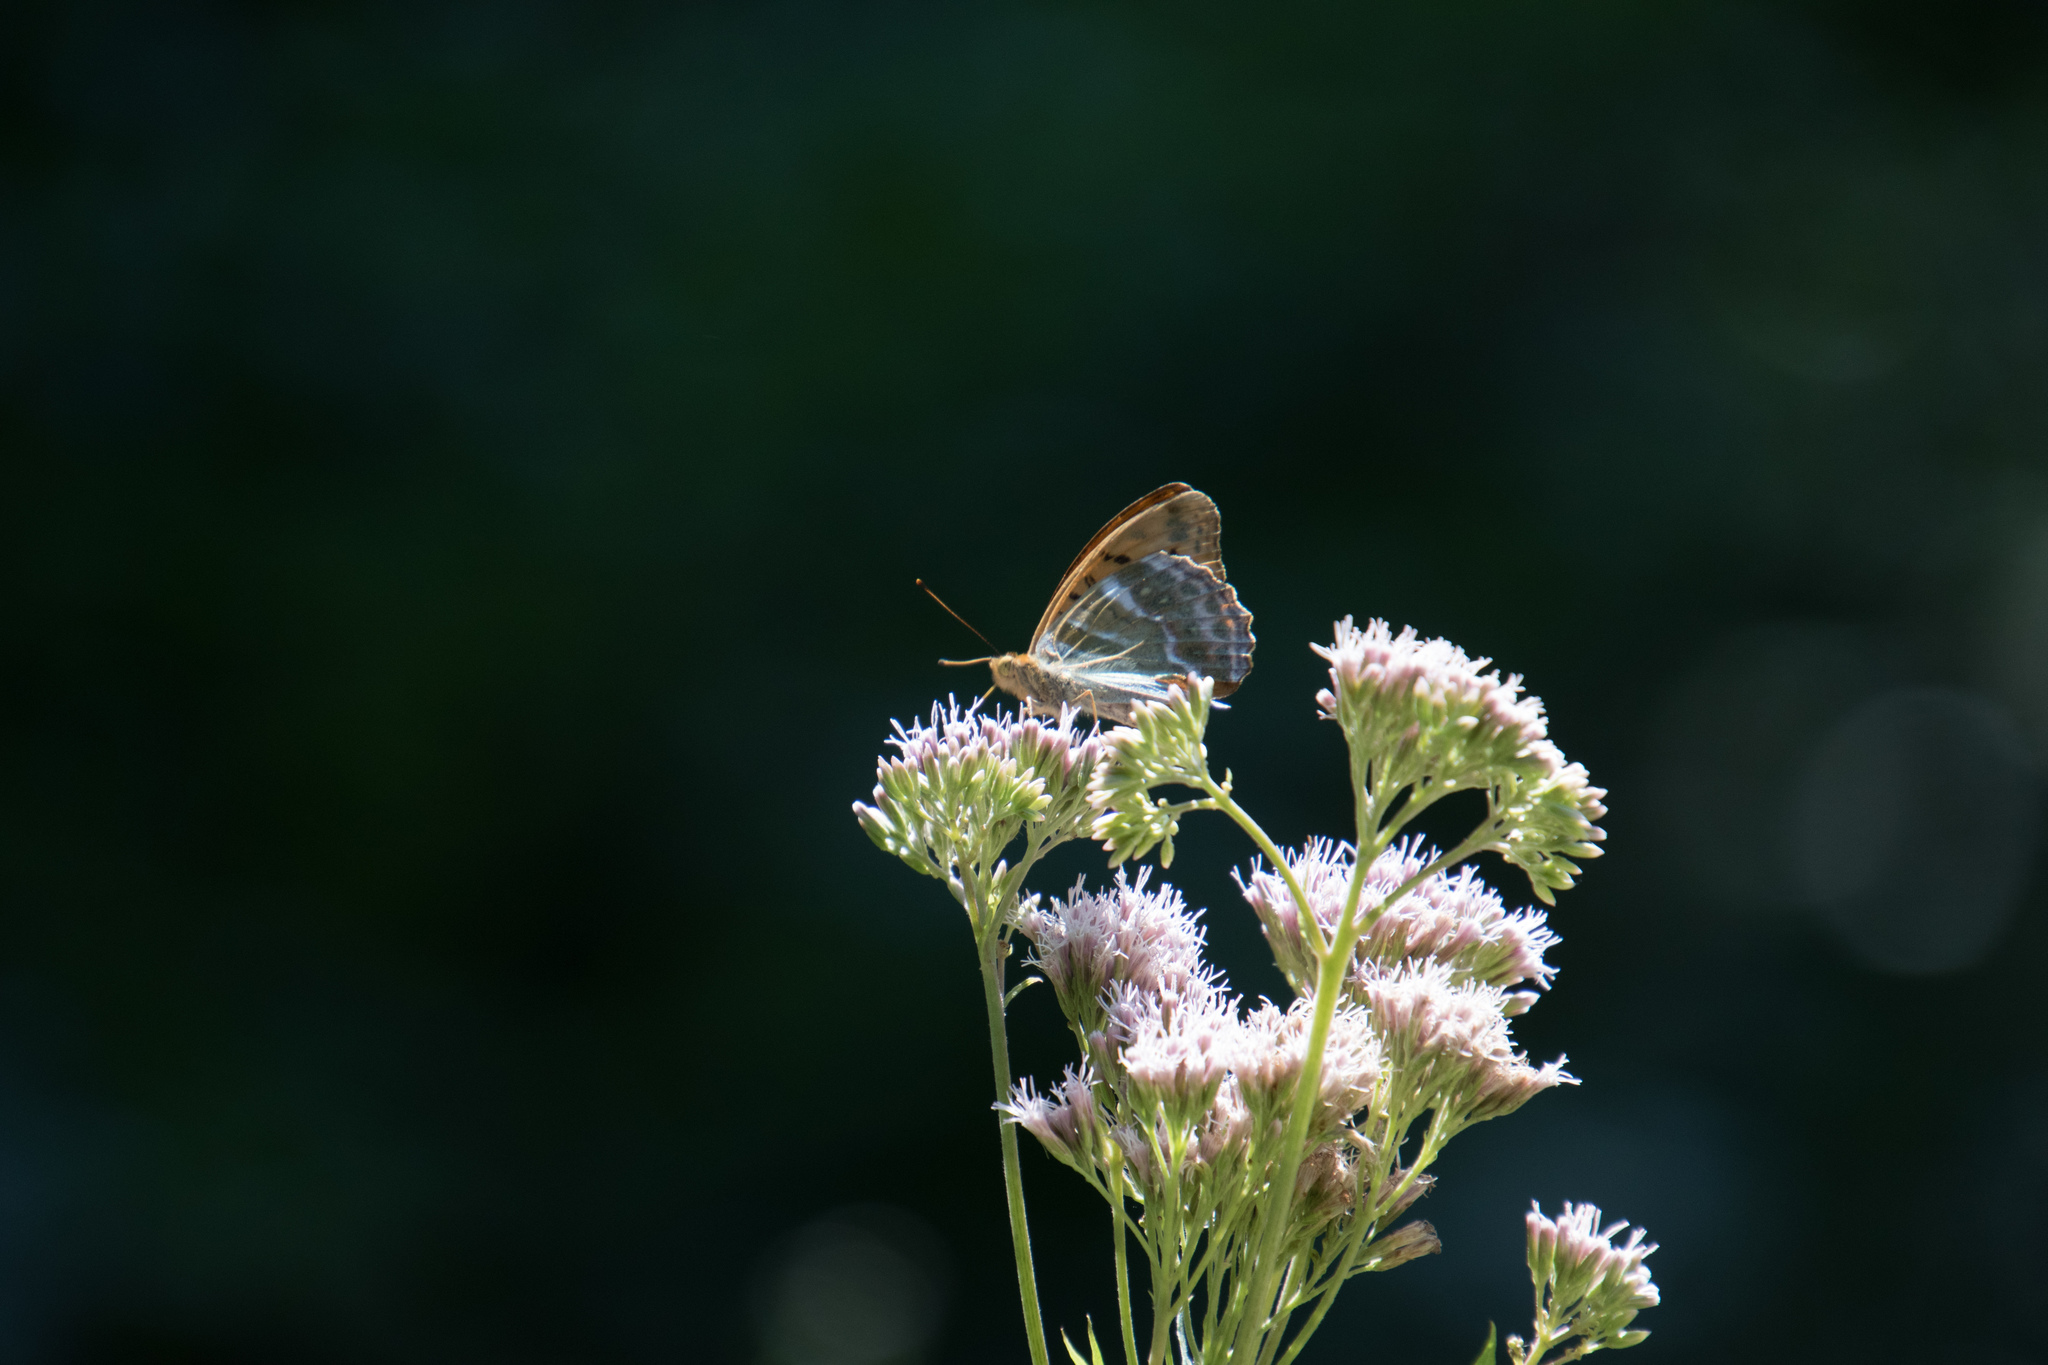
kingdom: Animalia
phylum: Arthropoda
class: Insecta
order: Lepidoptera
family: Nymphalidae
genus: Argynnis
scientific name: Argynnis paphia
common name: Silver-washed fritillary
